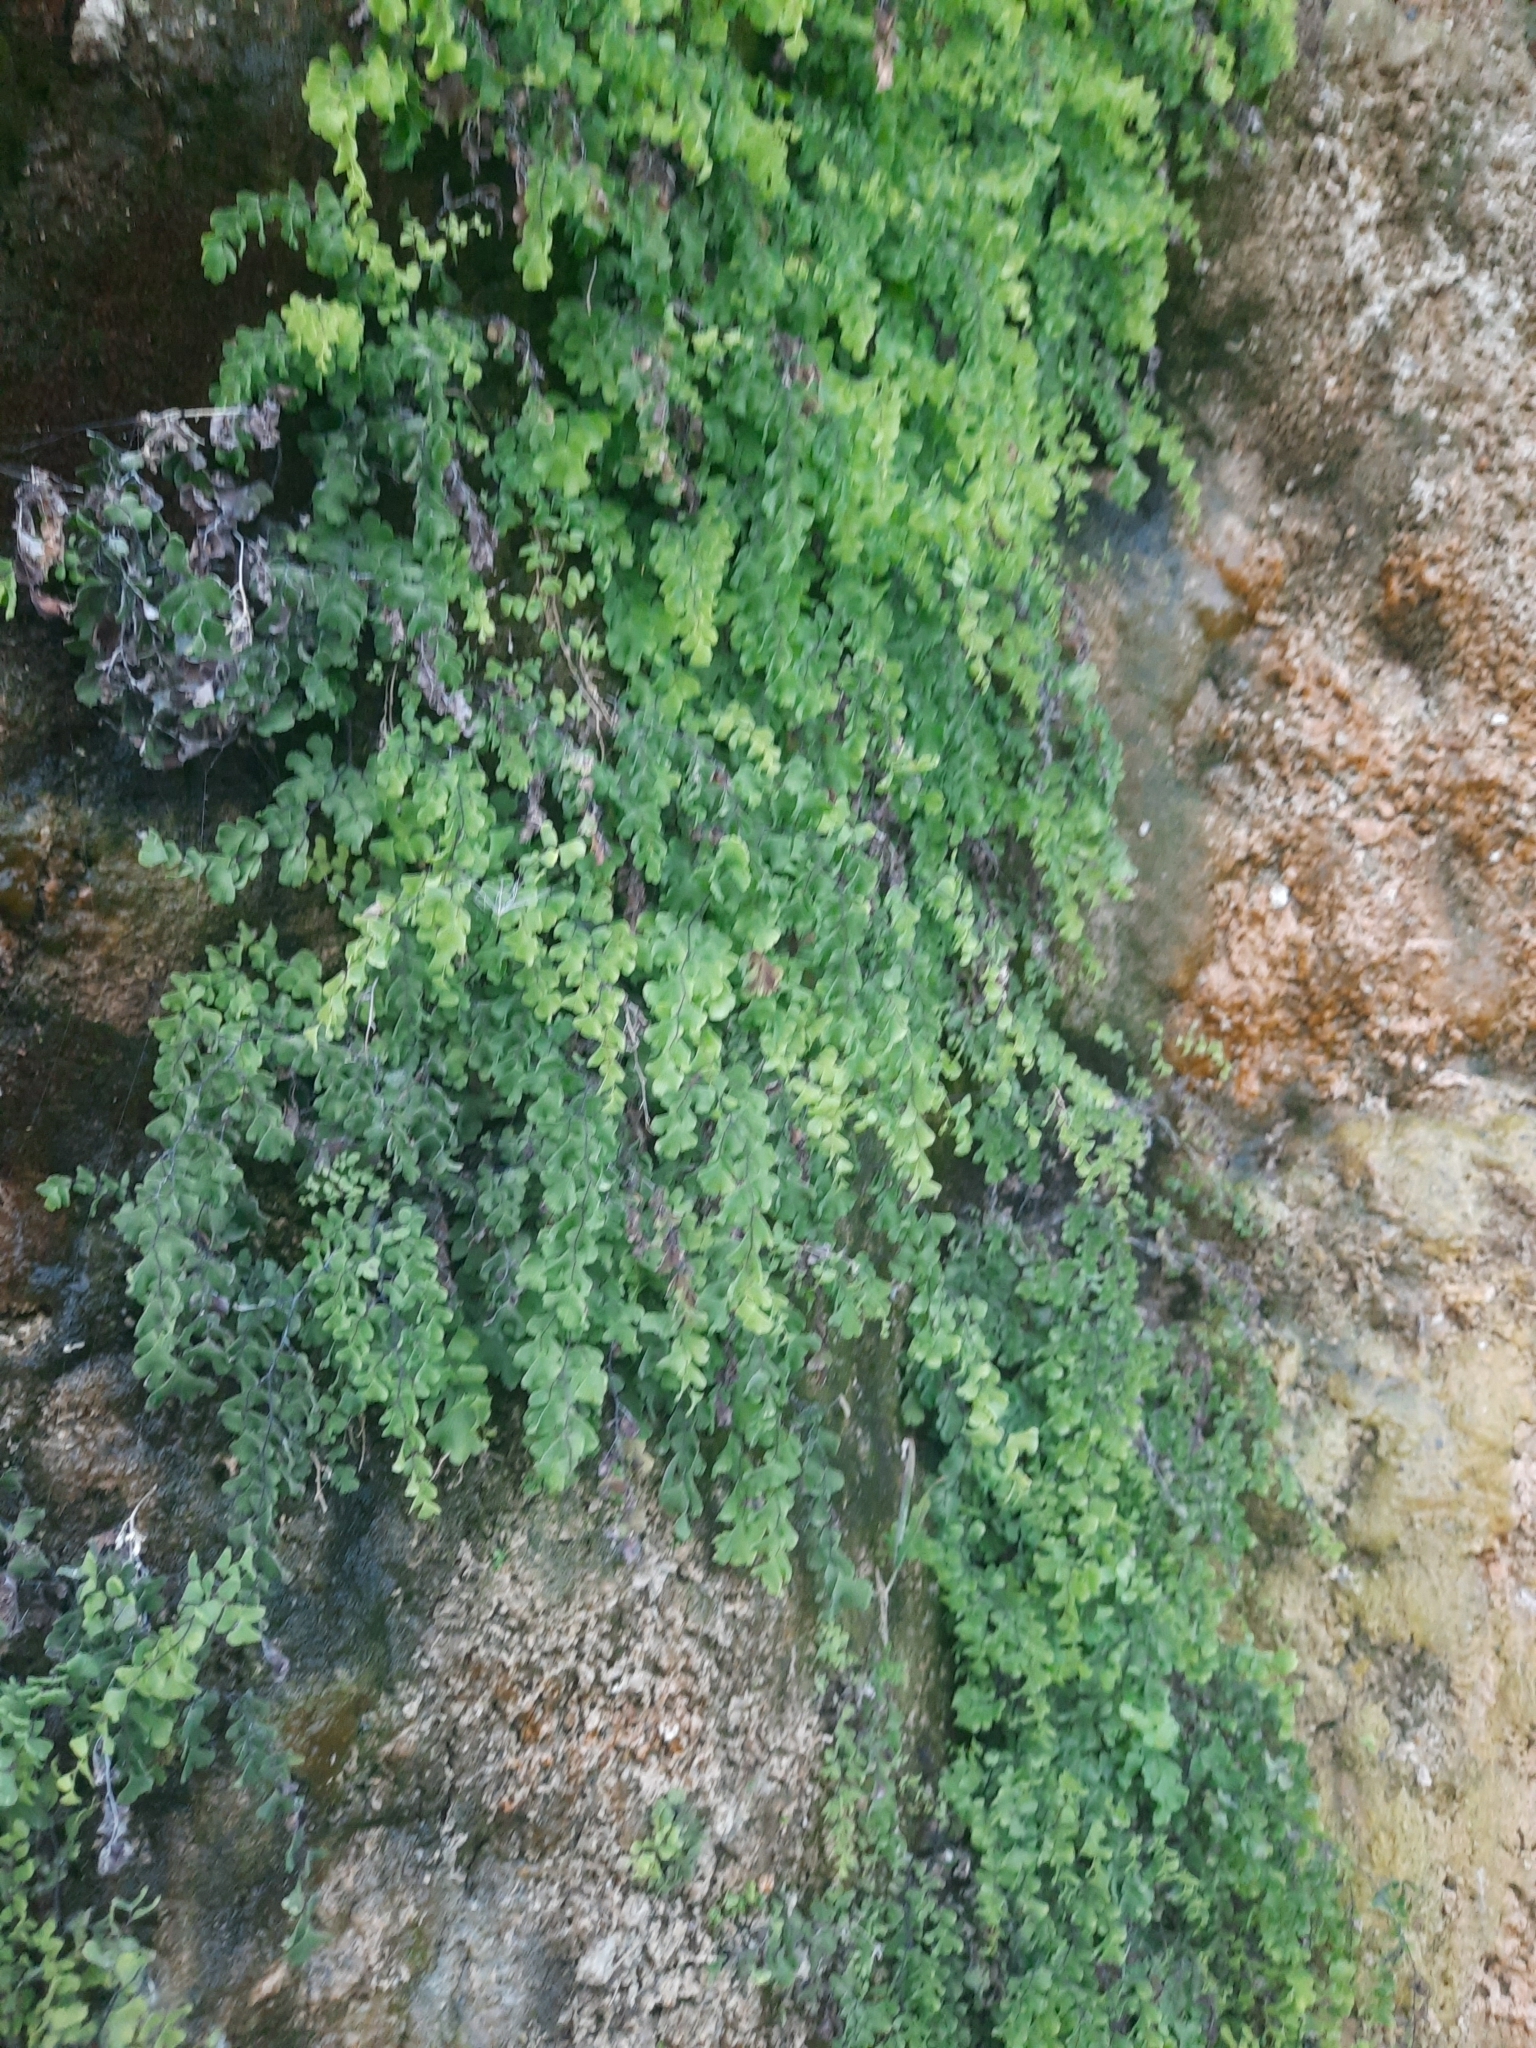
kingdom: Plantae
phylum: Tracheophyta
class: Polypodiopsida
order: Polypodiales
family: Pteridaceae
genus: Adiantum
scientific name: Adiantum capillus-veneris
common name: Maidenhair fern
